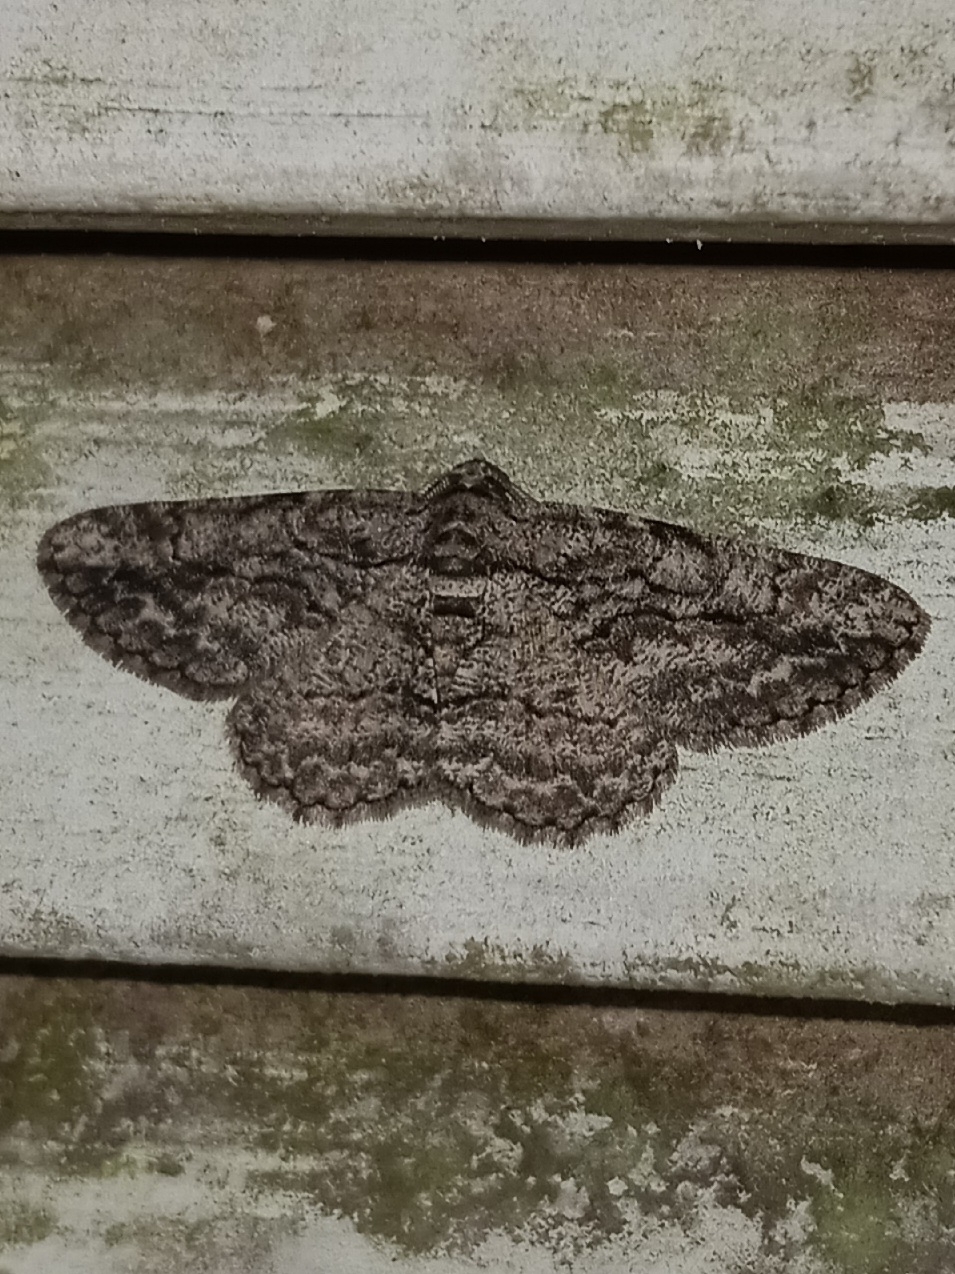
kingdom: Animalia
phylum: Arthropoda
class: Insecta
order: Lepidoptera
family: Geometridae
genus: Anavitrinella
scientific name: Anavitrinella pampinaria
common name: Common gray
